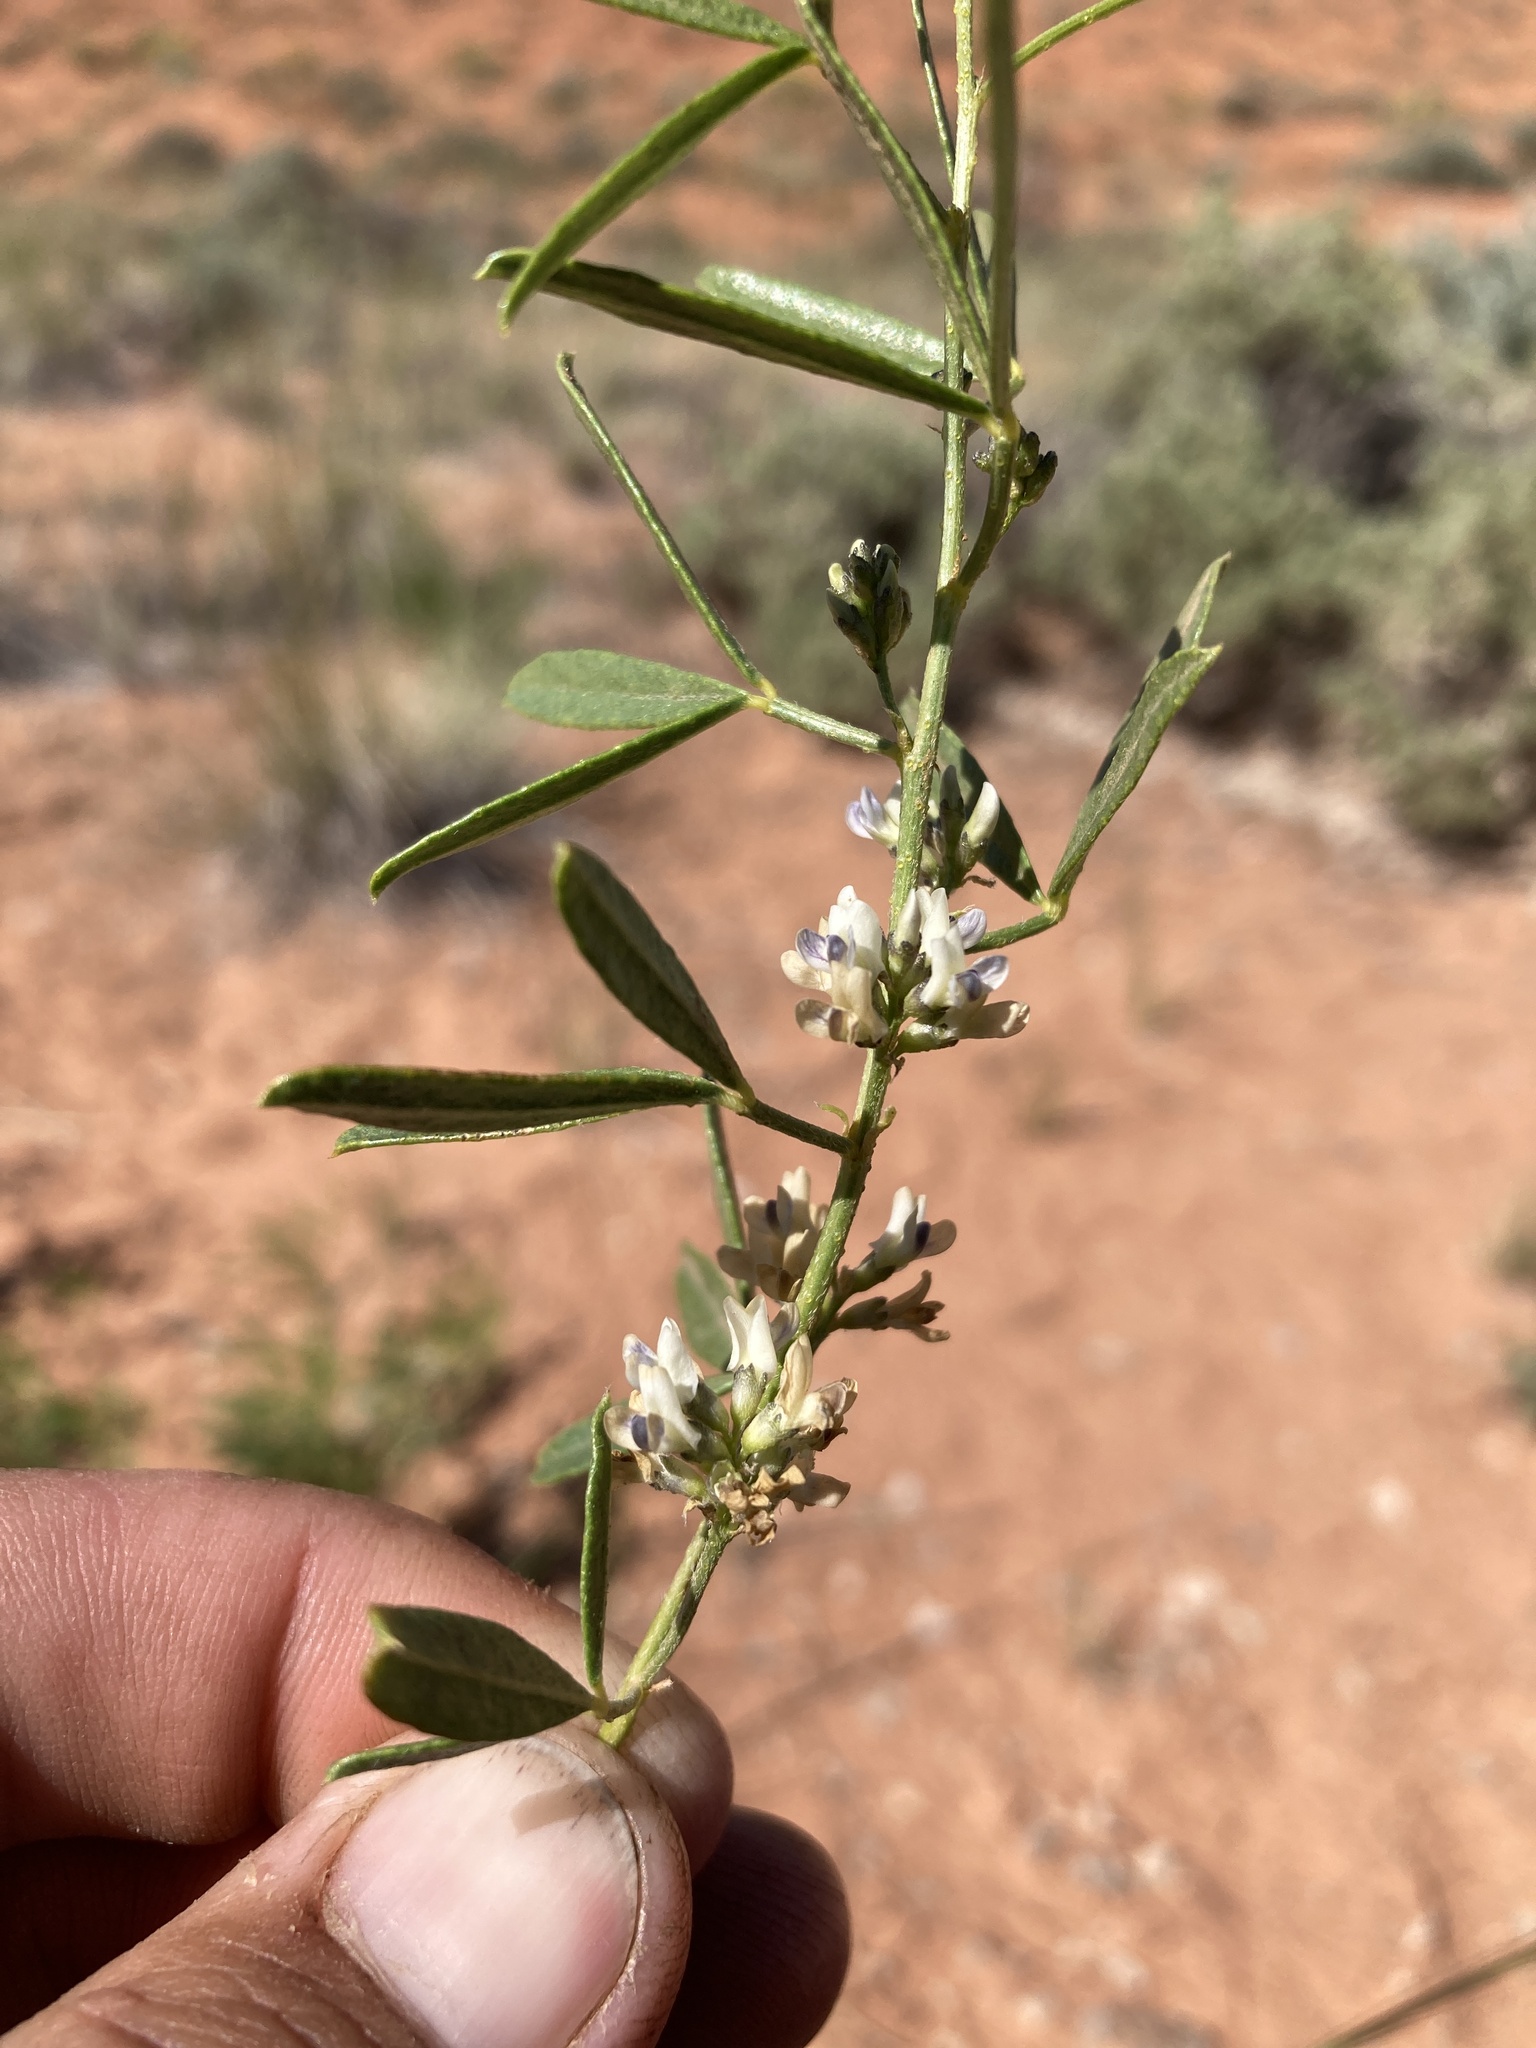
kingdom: Plantae
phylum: Tracheophyta
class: Magnoliopsida
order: Fabales
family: Fabaceae
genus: Ladeania
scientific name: Ladeania lanceolata
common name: Dune scurf-pea
